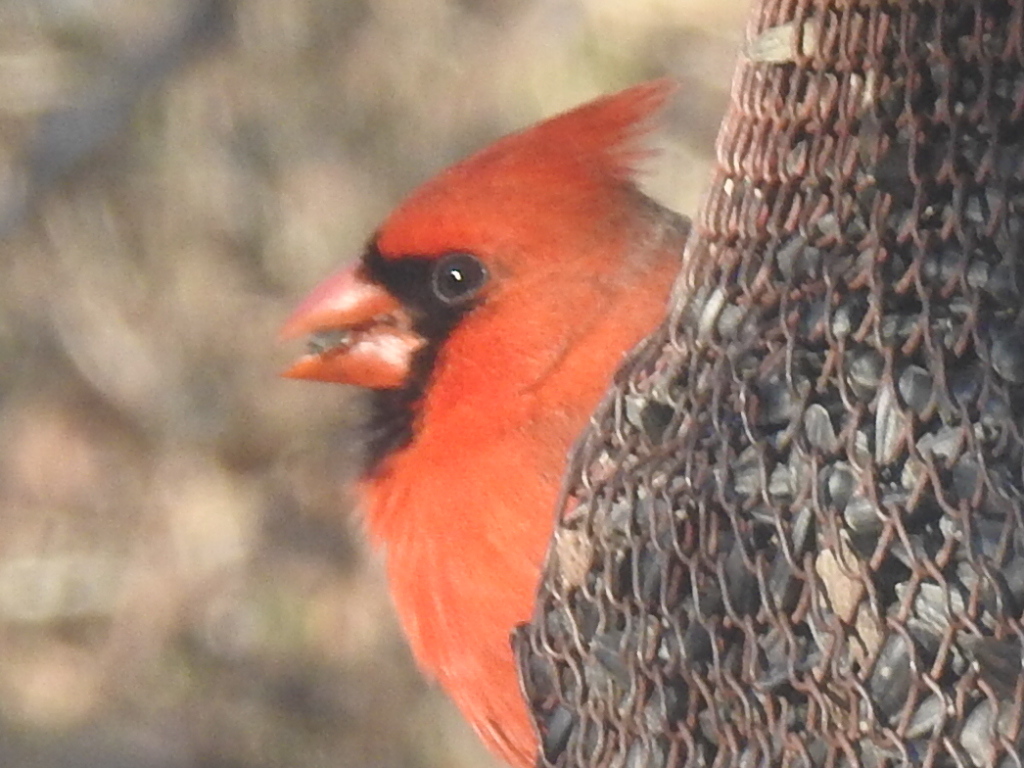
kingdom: Animalia
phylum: Chordata
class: Aves
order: Passeriformes
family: Cardinalidae
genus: Cardinalis
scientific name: Cardinalis cardinalis
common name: Northern cardinal
